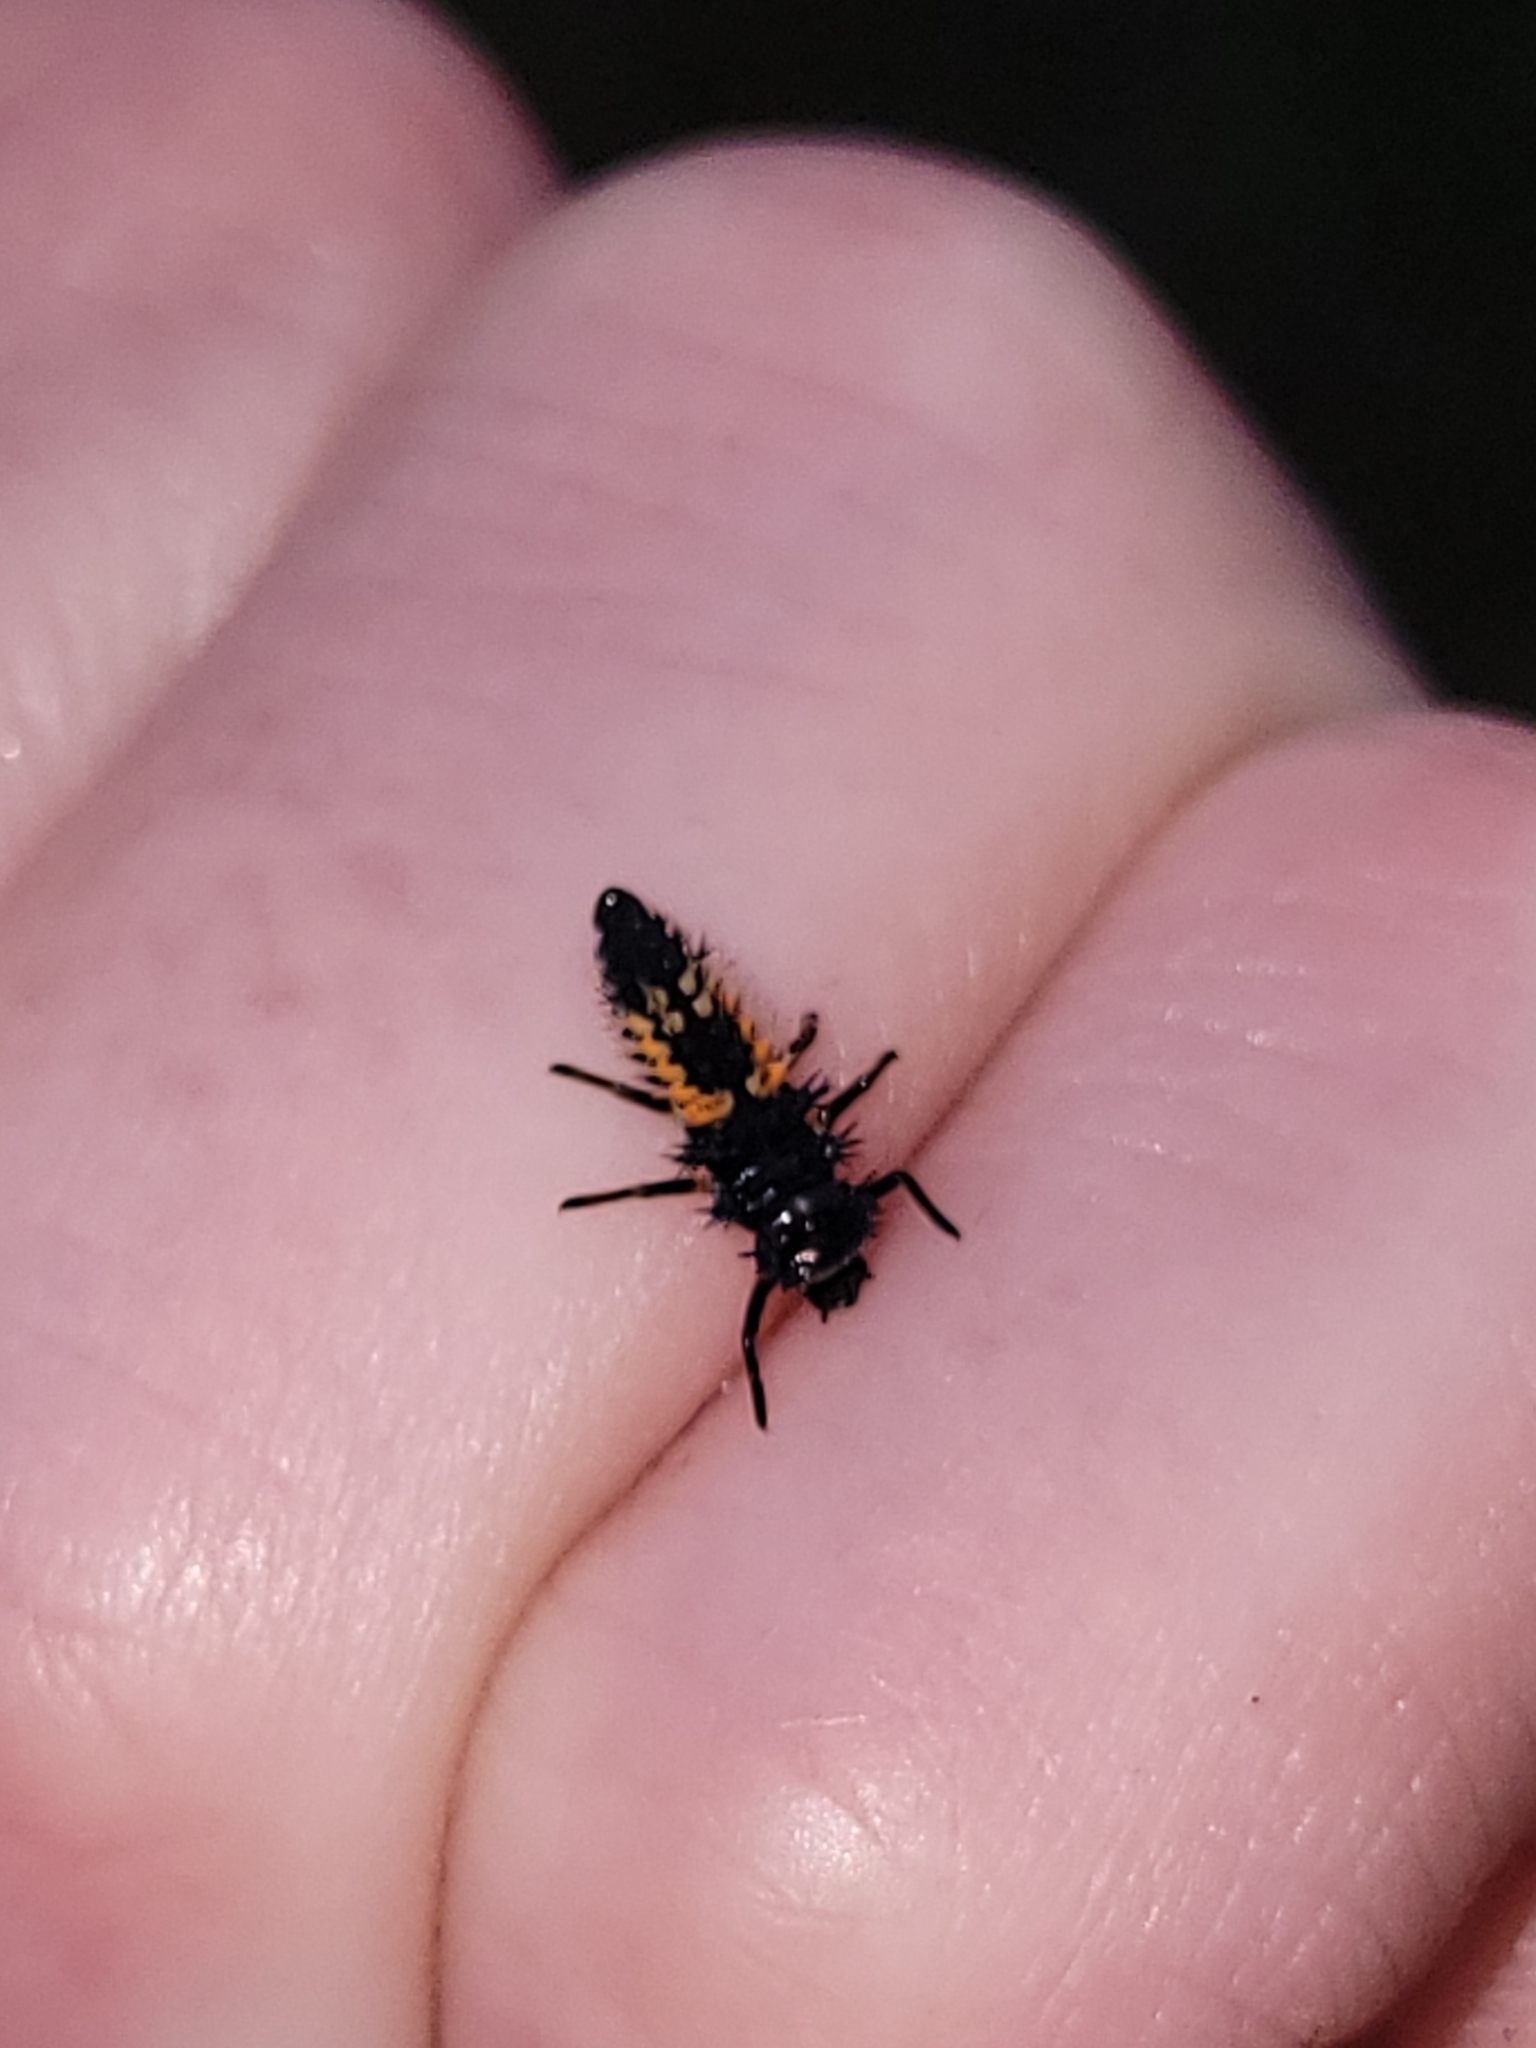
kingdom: Animalia
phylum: Arthropoda
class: Insecta
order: Coleoptera
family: Coccinellidae
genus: Harmonia
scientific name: Harmonia axyridis
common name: Harlequin ladybird
